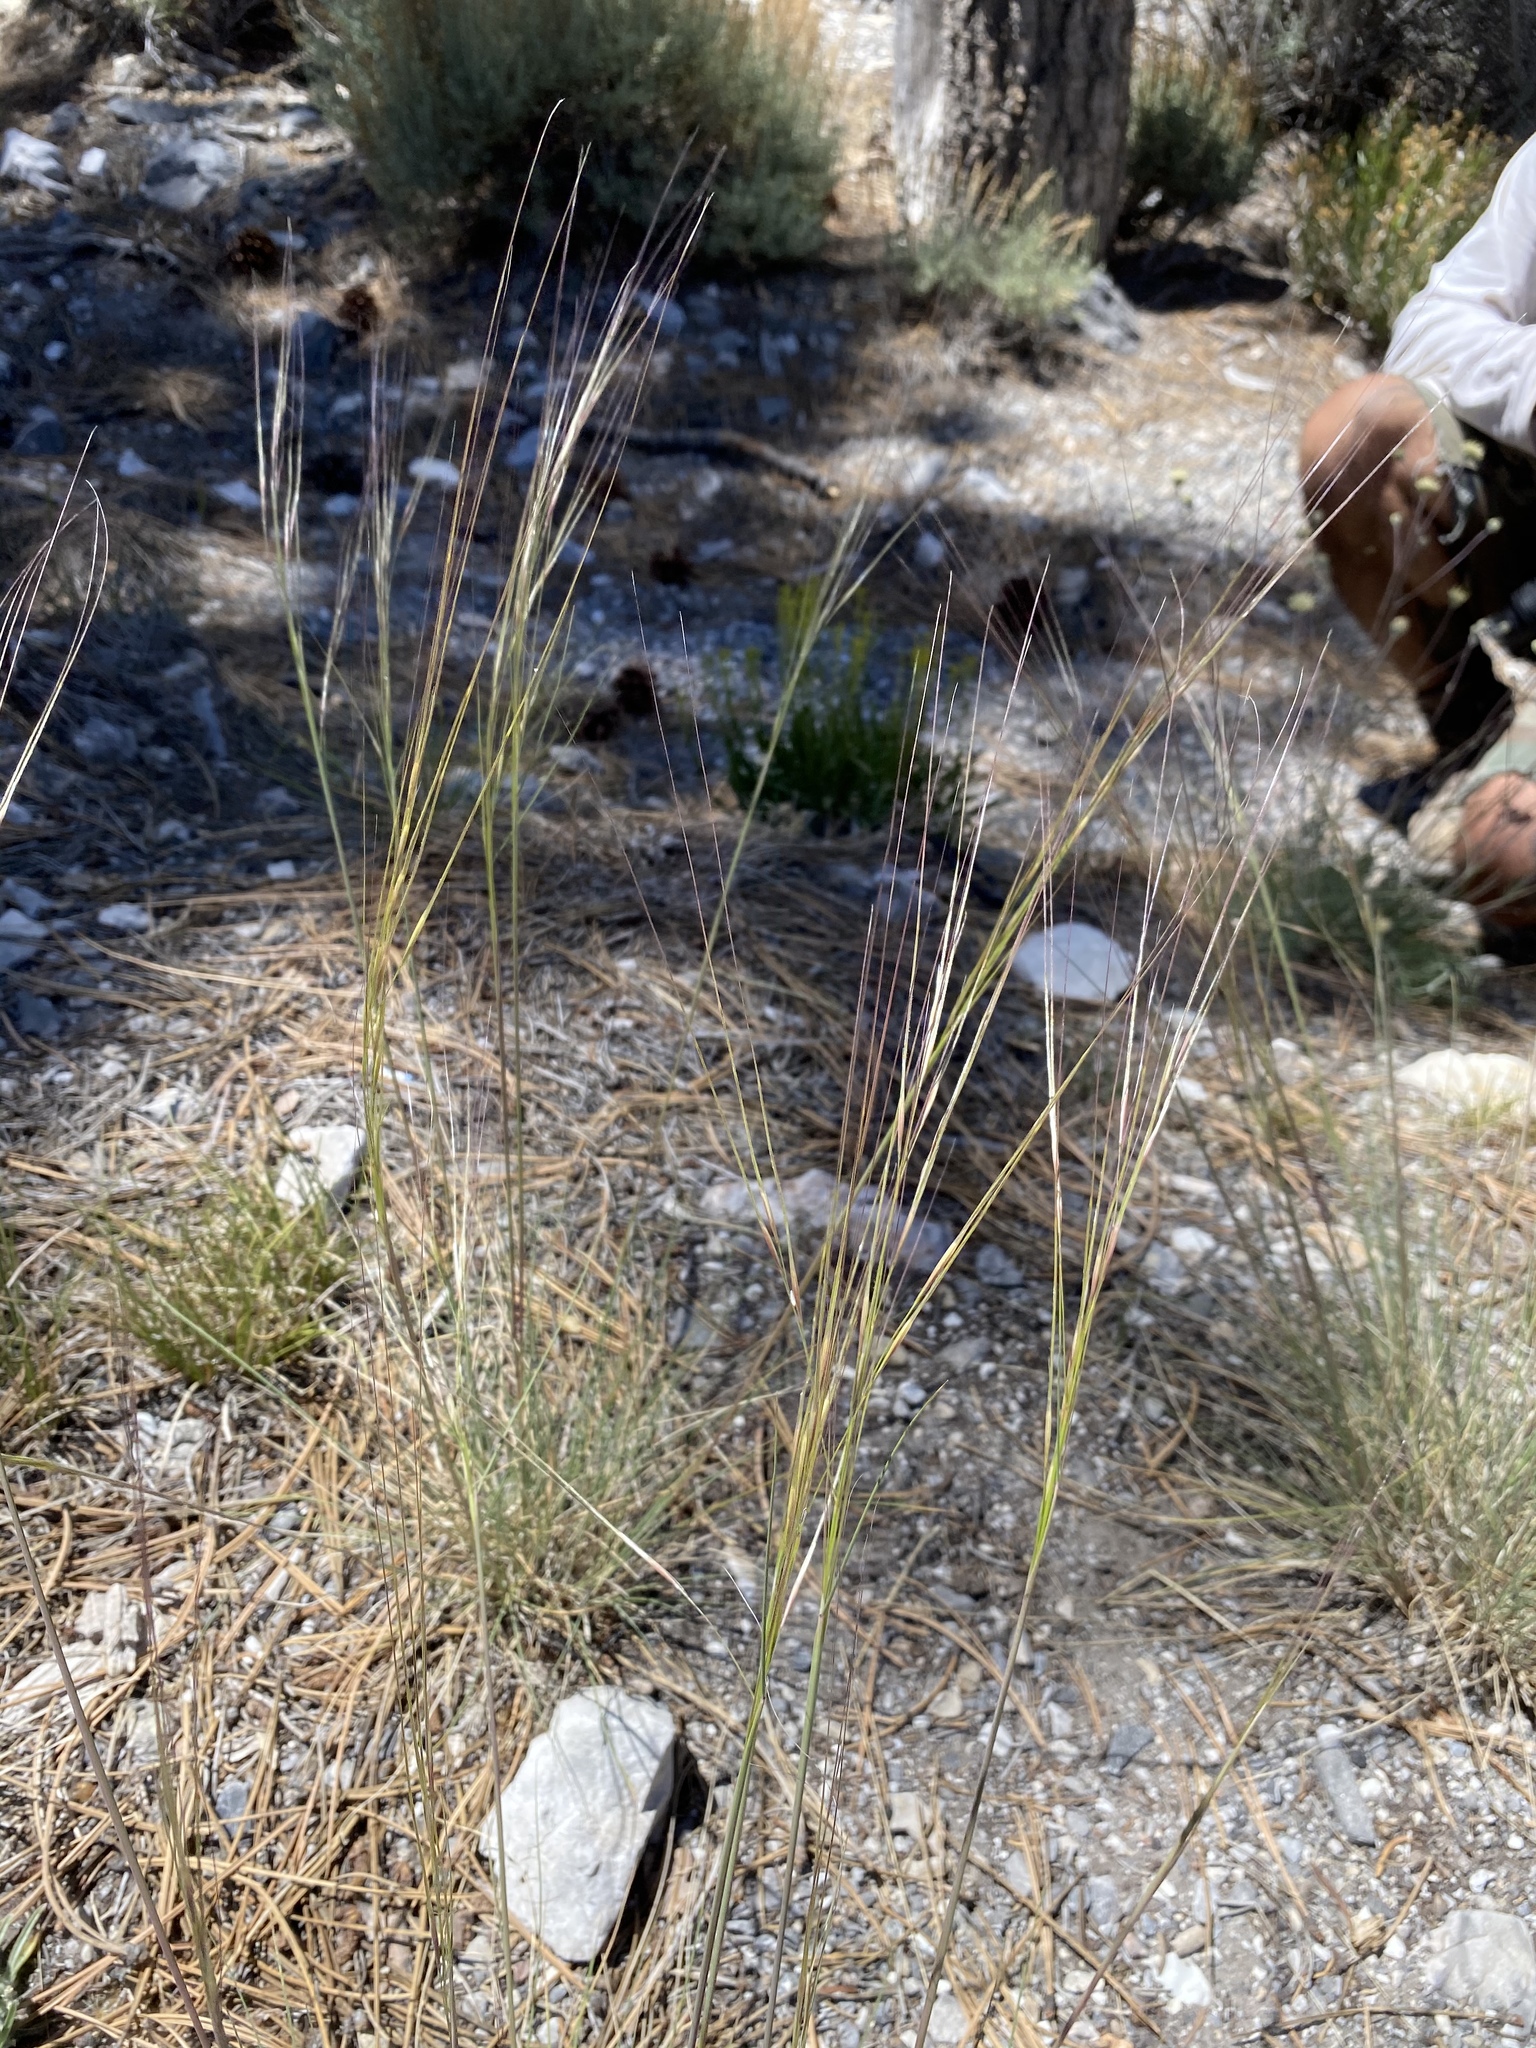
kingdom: Plantae
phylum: Tracheophyta
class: Liliopsida
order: Poales
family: Poaceae
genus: Hesperostipa
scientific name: Hesperostipa comata
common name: Needle-and-thread grass
